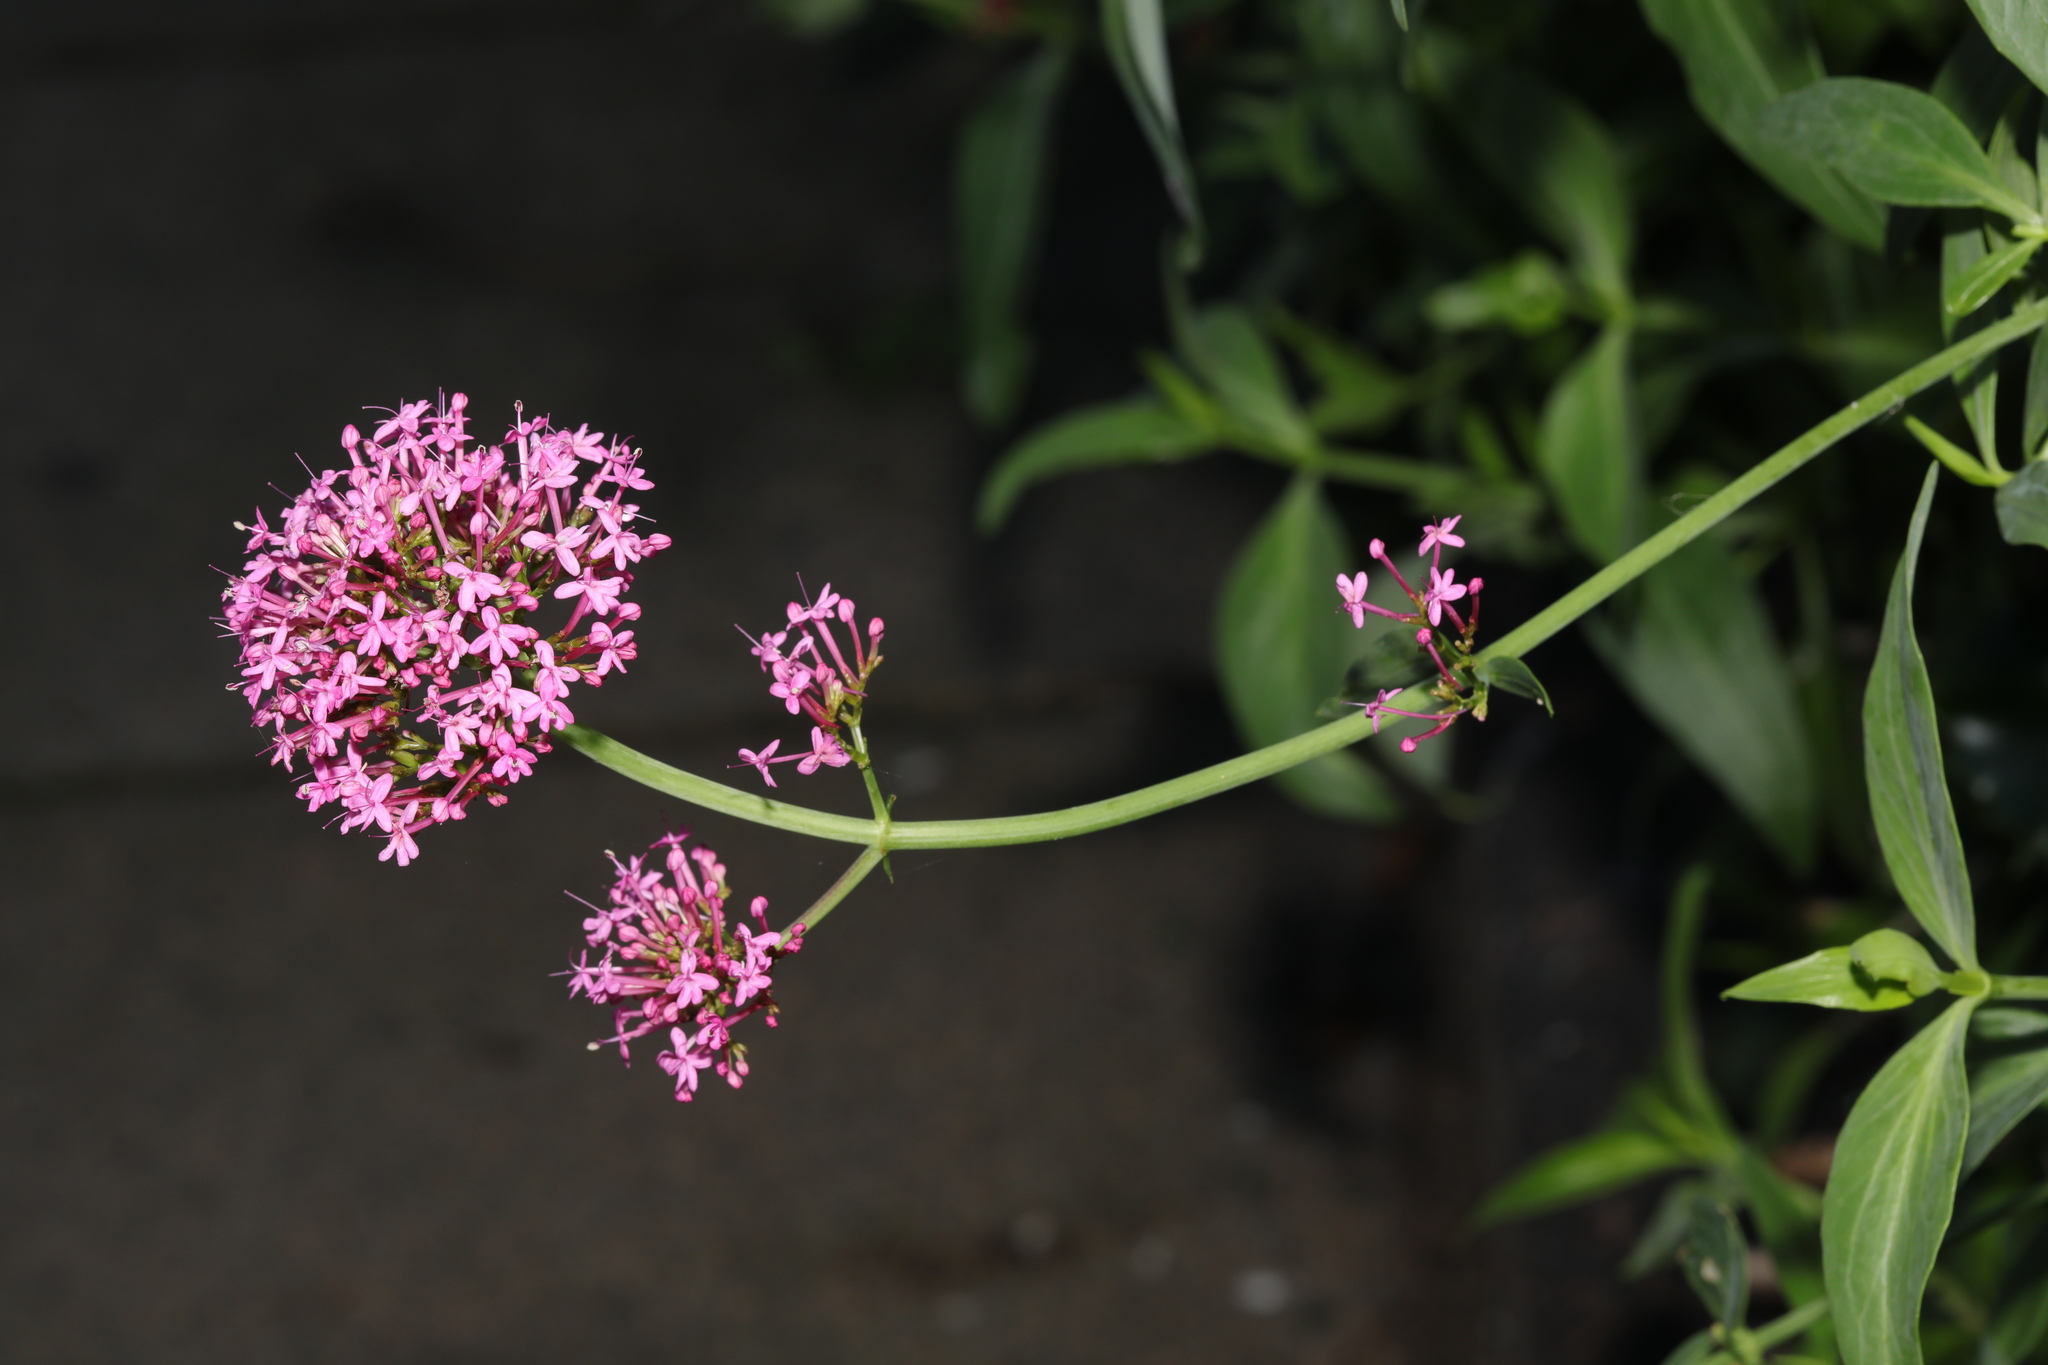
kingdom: Plantae
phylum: Tracheophyta
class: Magnoliopsida
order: Dipsacales
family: Caprifoliaceae
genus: Centranthus
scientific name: Centranthus ruber
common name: Red valerian
